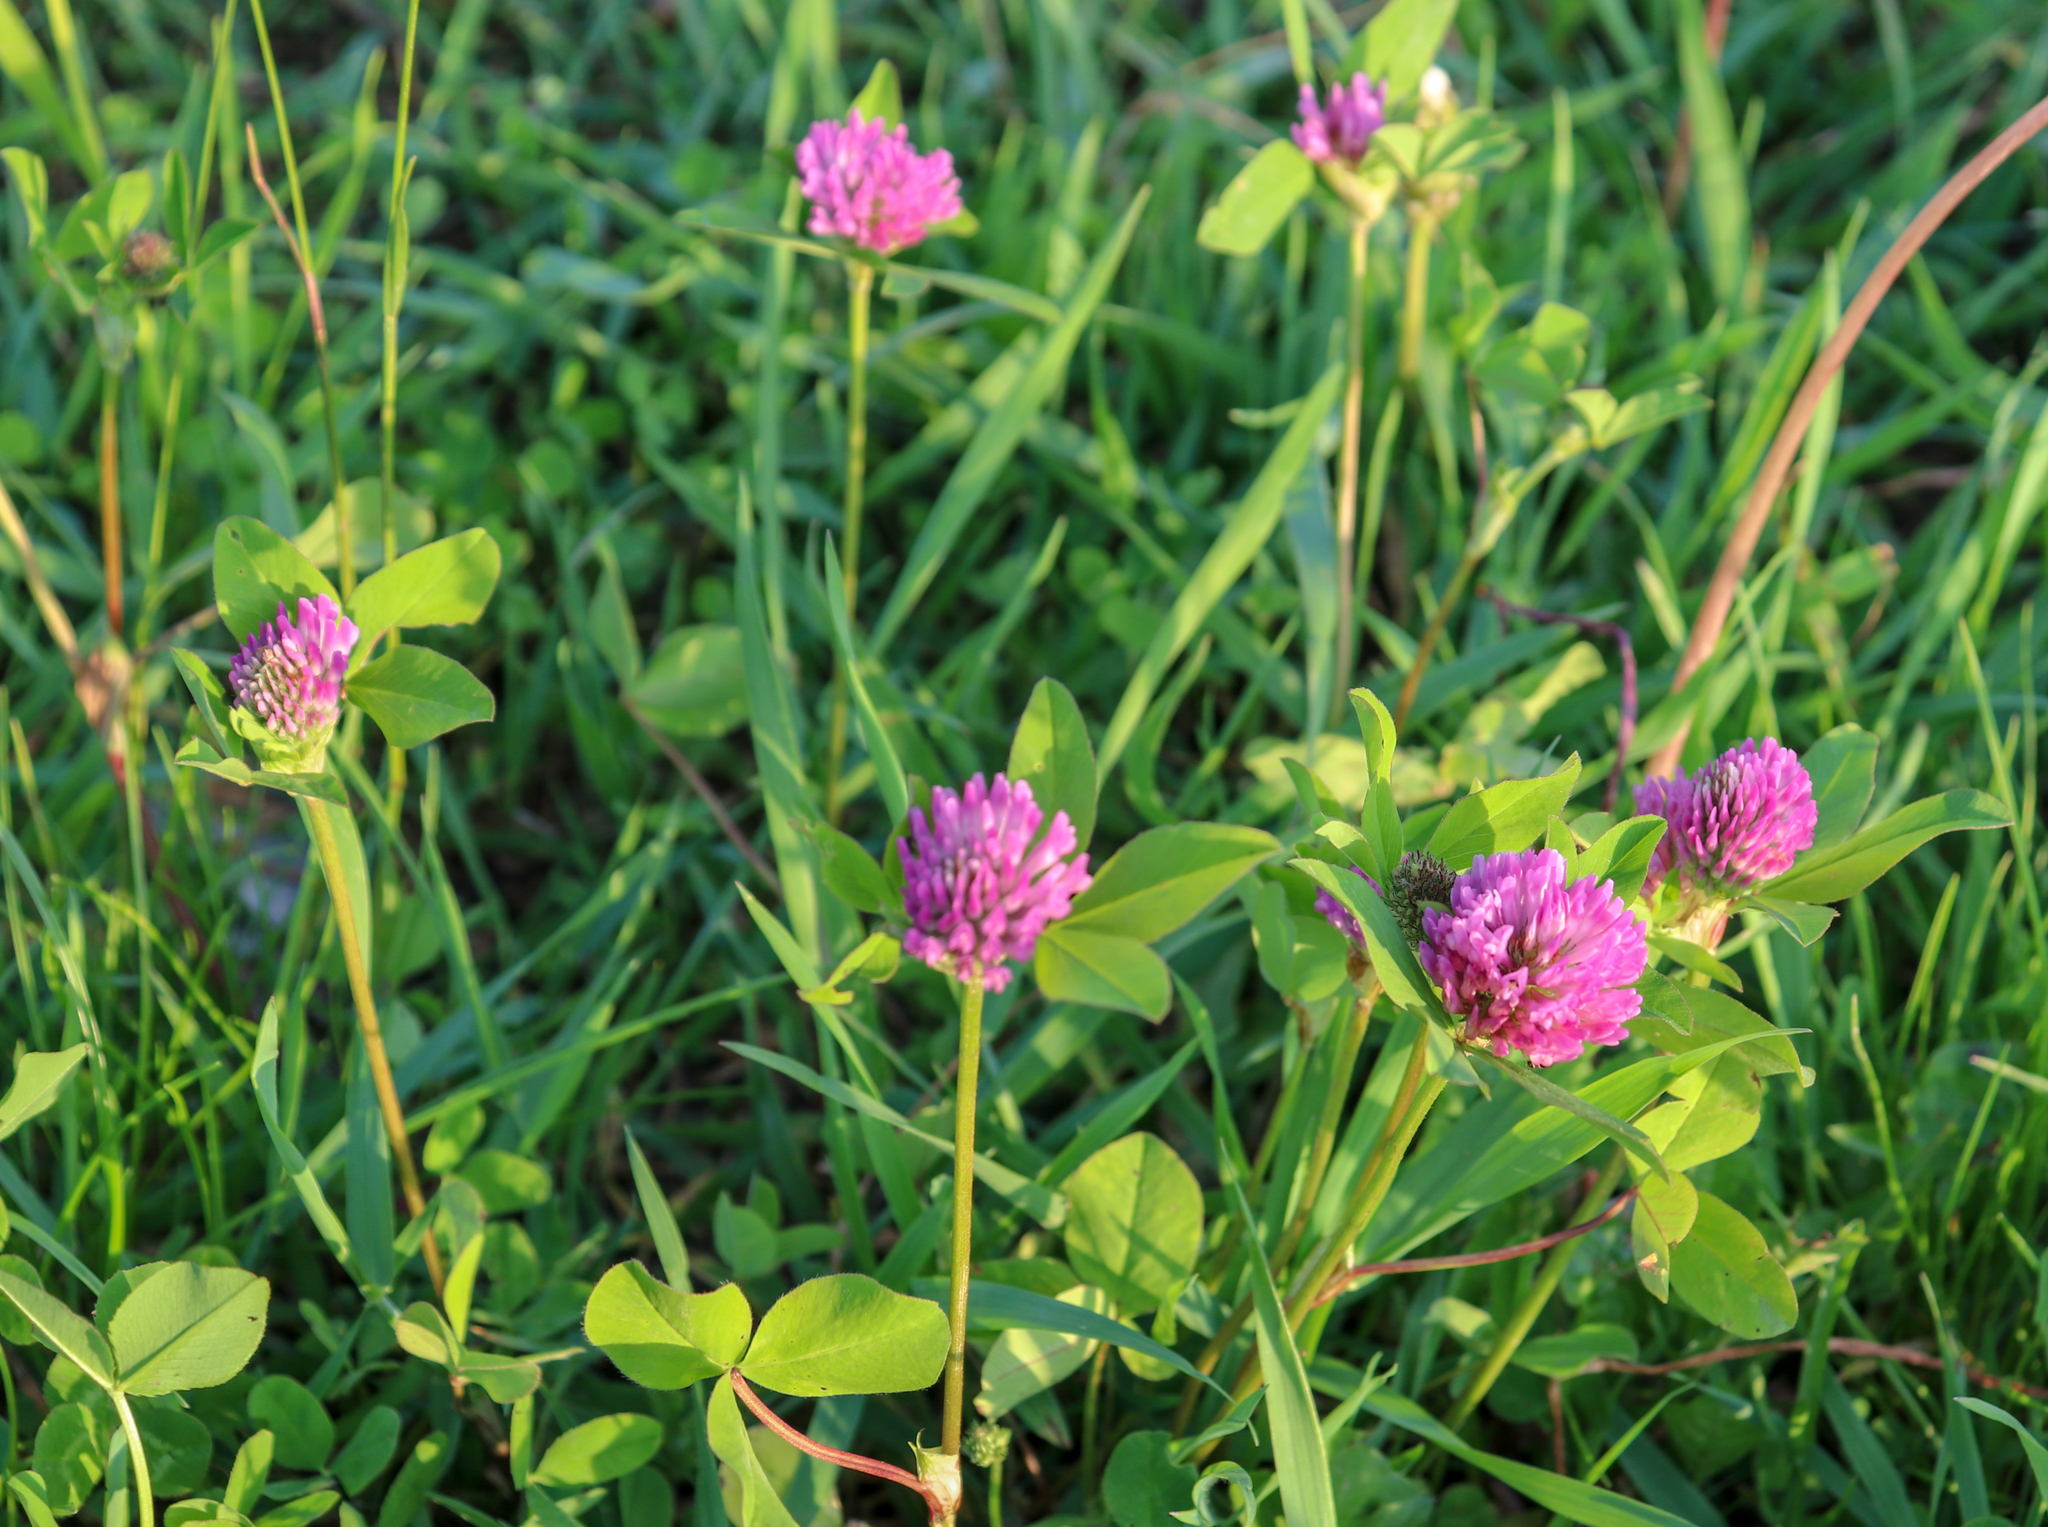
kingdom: Plantae
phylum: Tracheophyta
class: Magnoliopsida
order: Fabales
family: Fabaceae
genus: Trifolium
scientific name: Trifolium pratense
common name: Red clover
